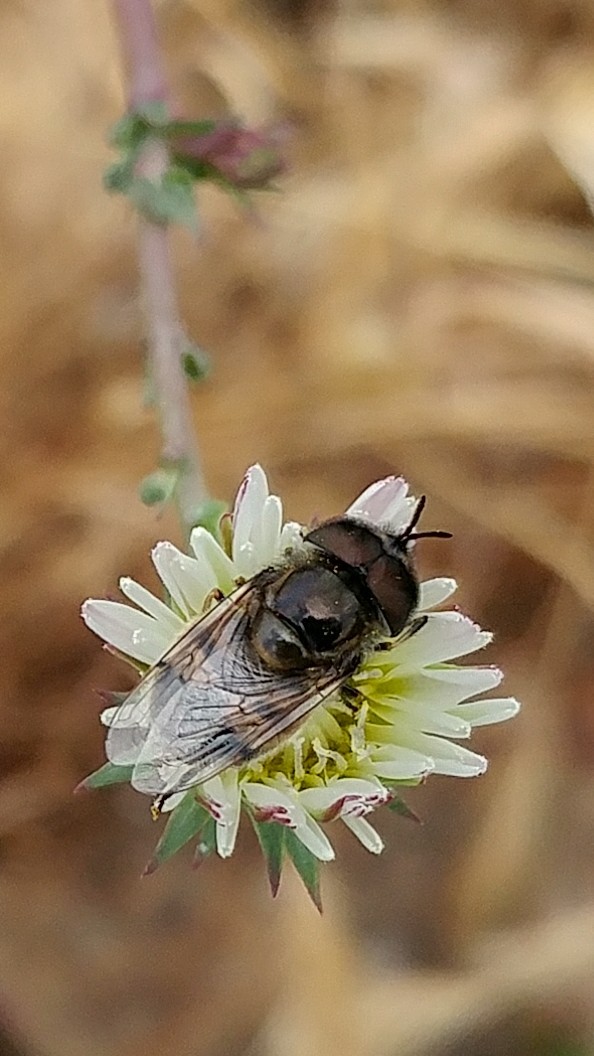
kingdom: Animalia
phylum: Arthropoda
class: Insecta
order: Diptera
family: Syrphidae
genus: Copestylum
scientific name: Copestylum
